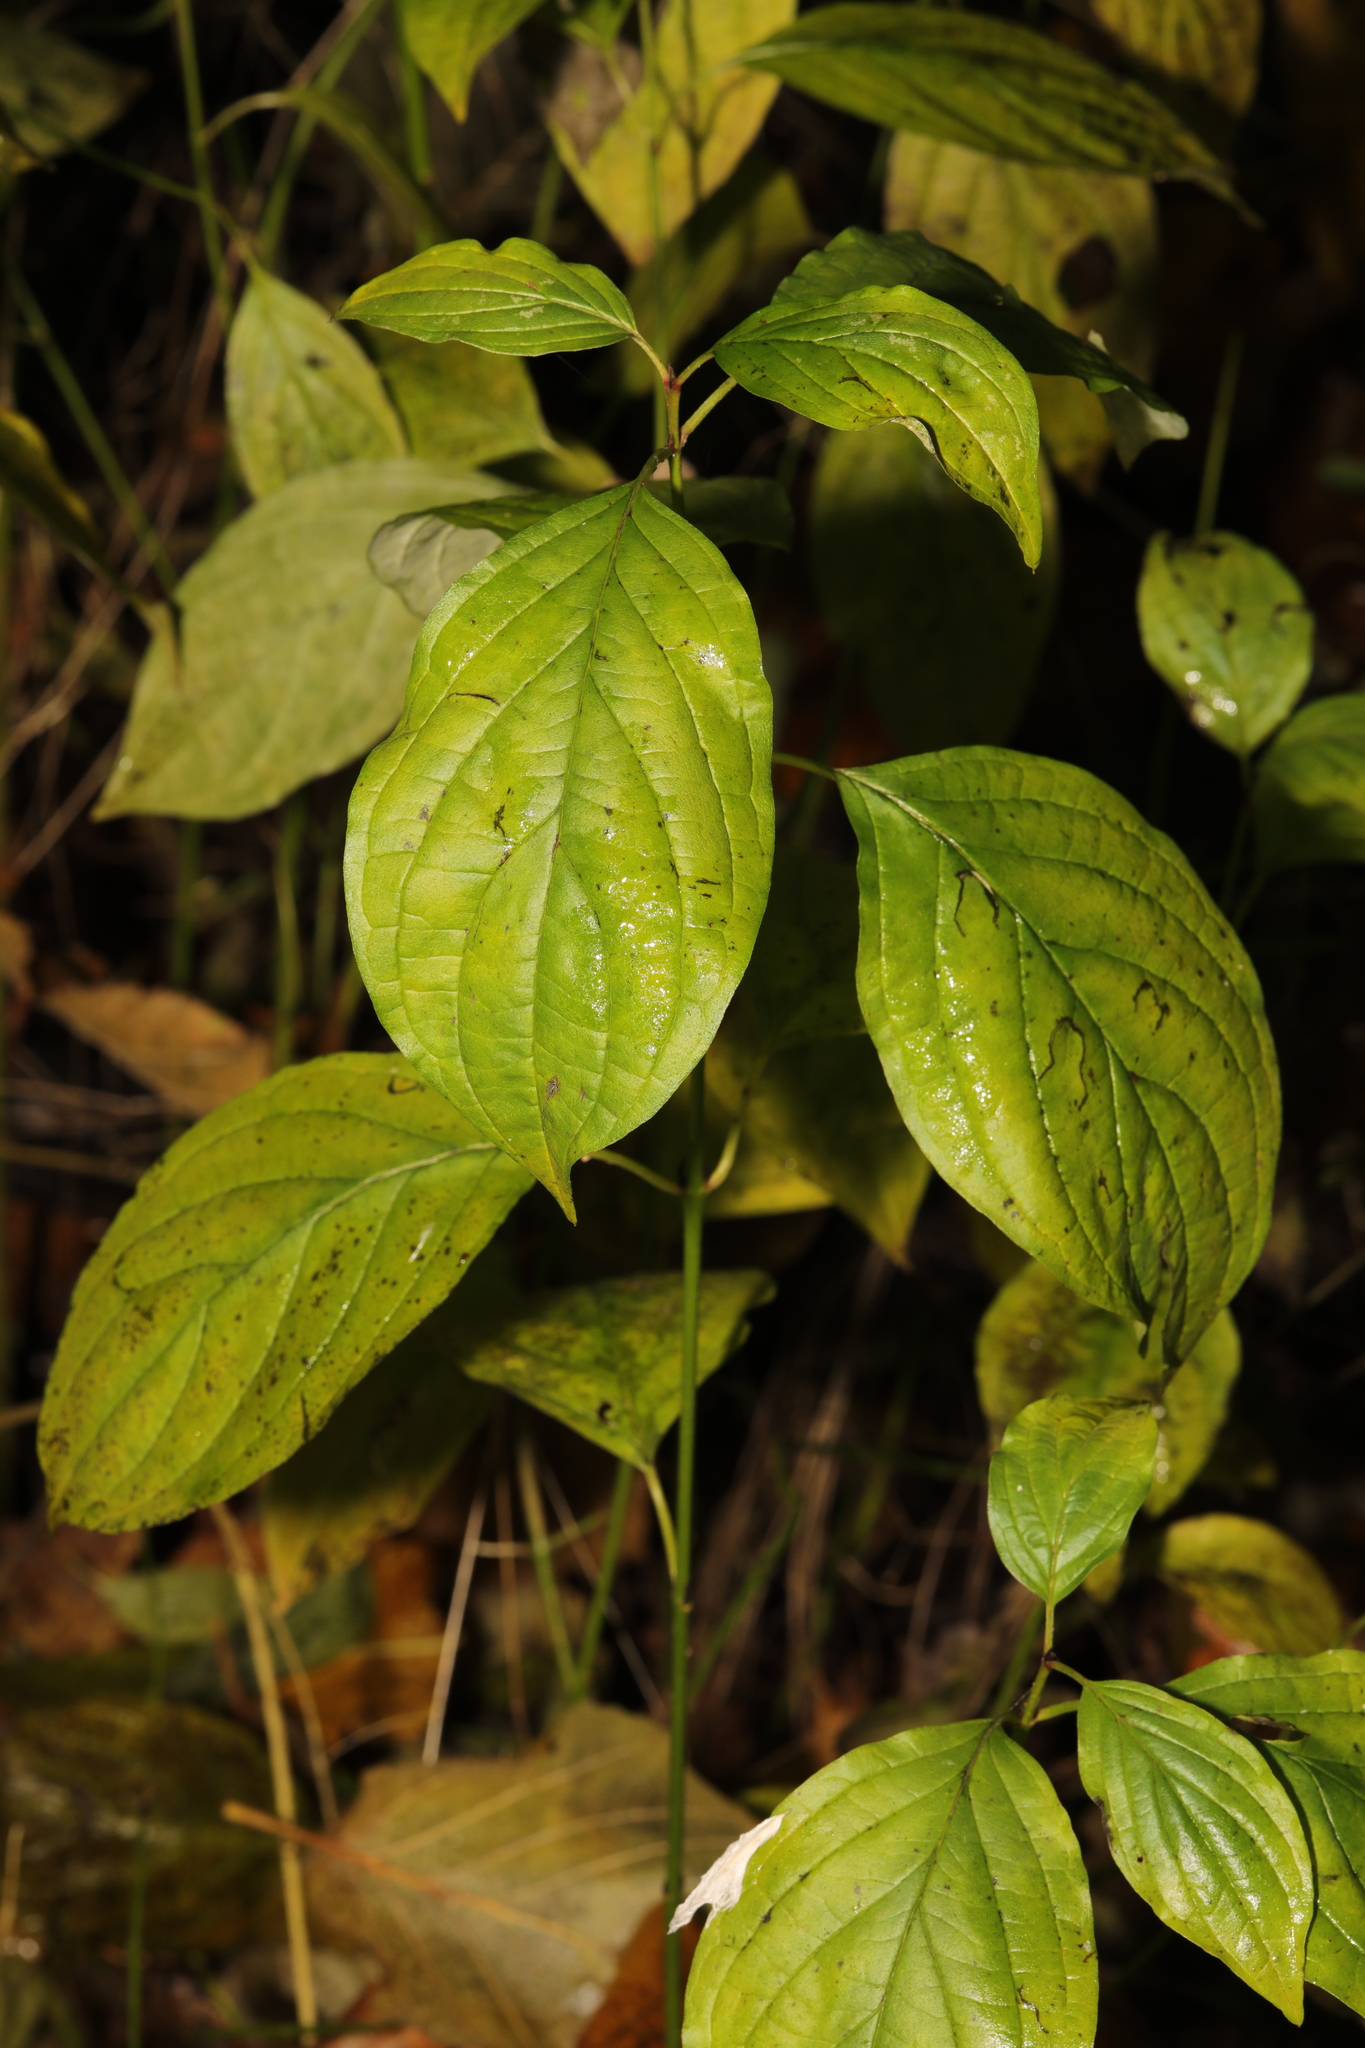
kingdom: Plantae
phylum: Tracheophyta
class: Magnoliopsida
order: Cornales
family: Cornaceae
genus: Cornus
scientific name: Cornus sanguinea
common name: Dogwood
